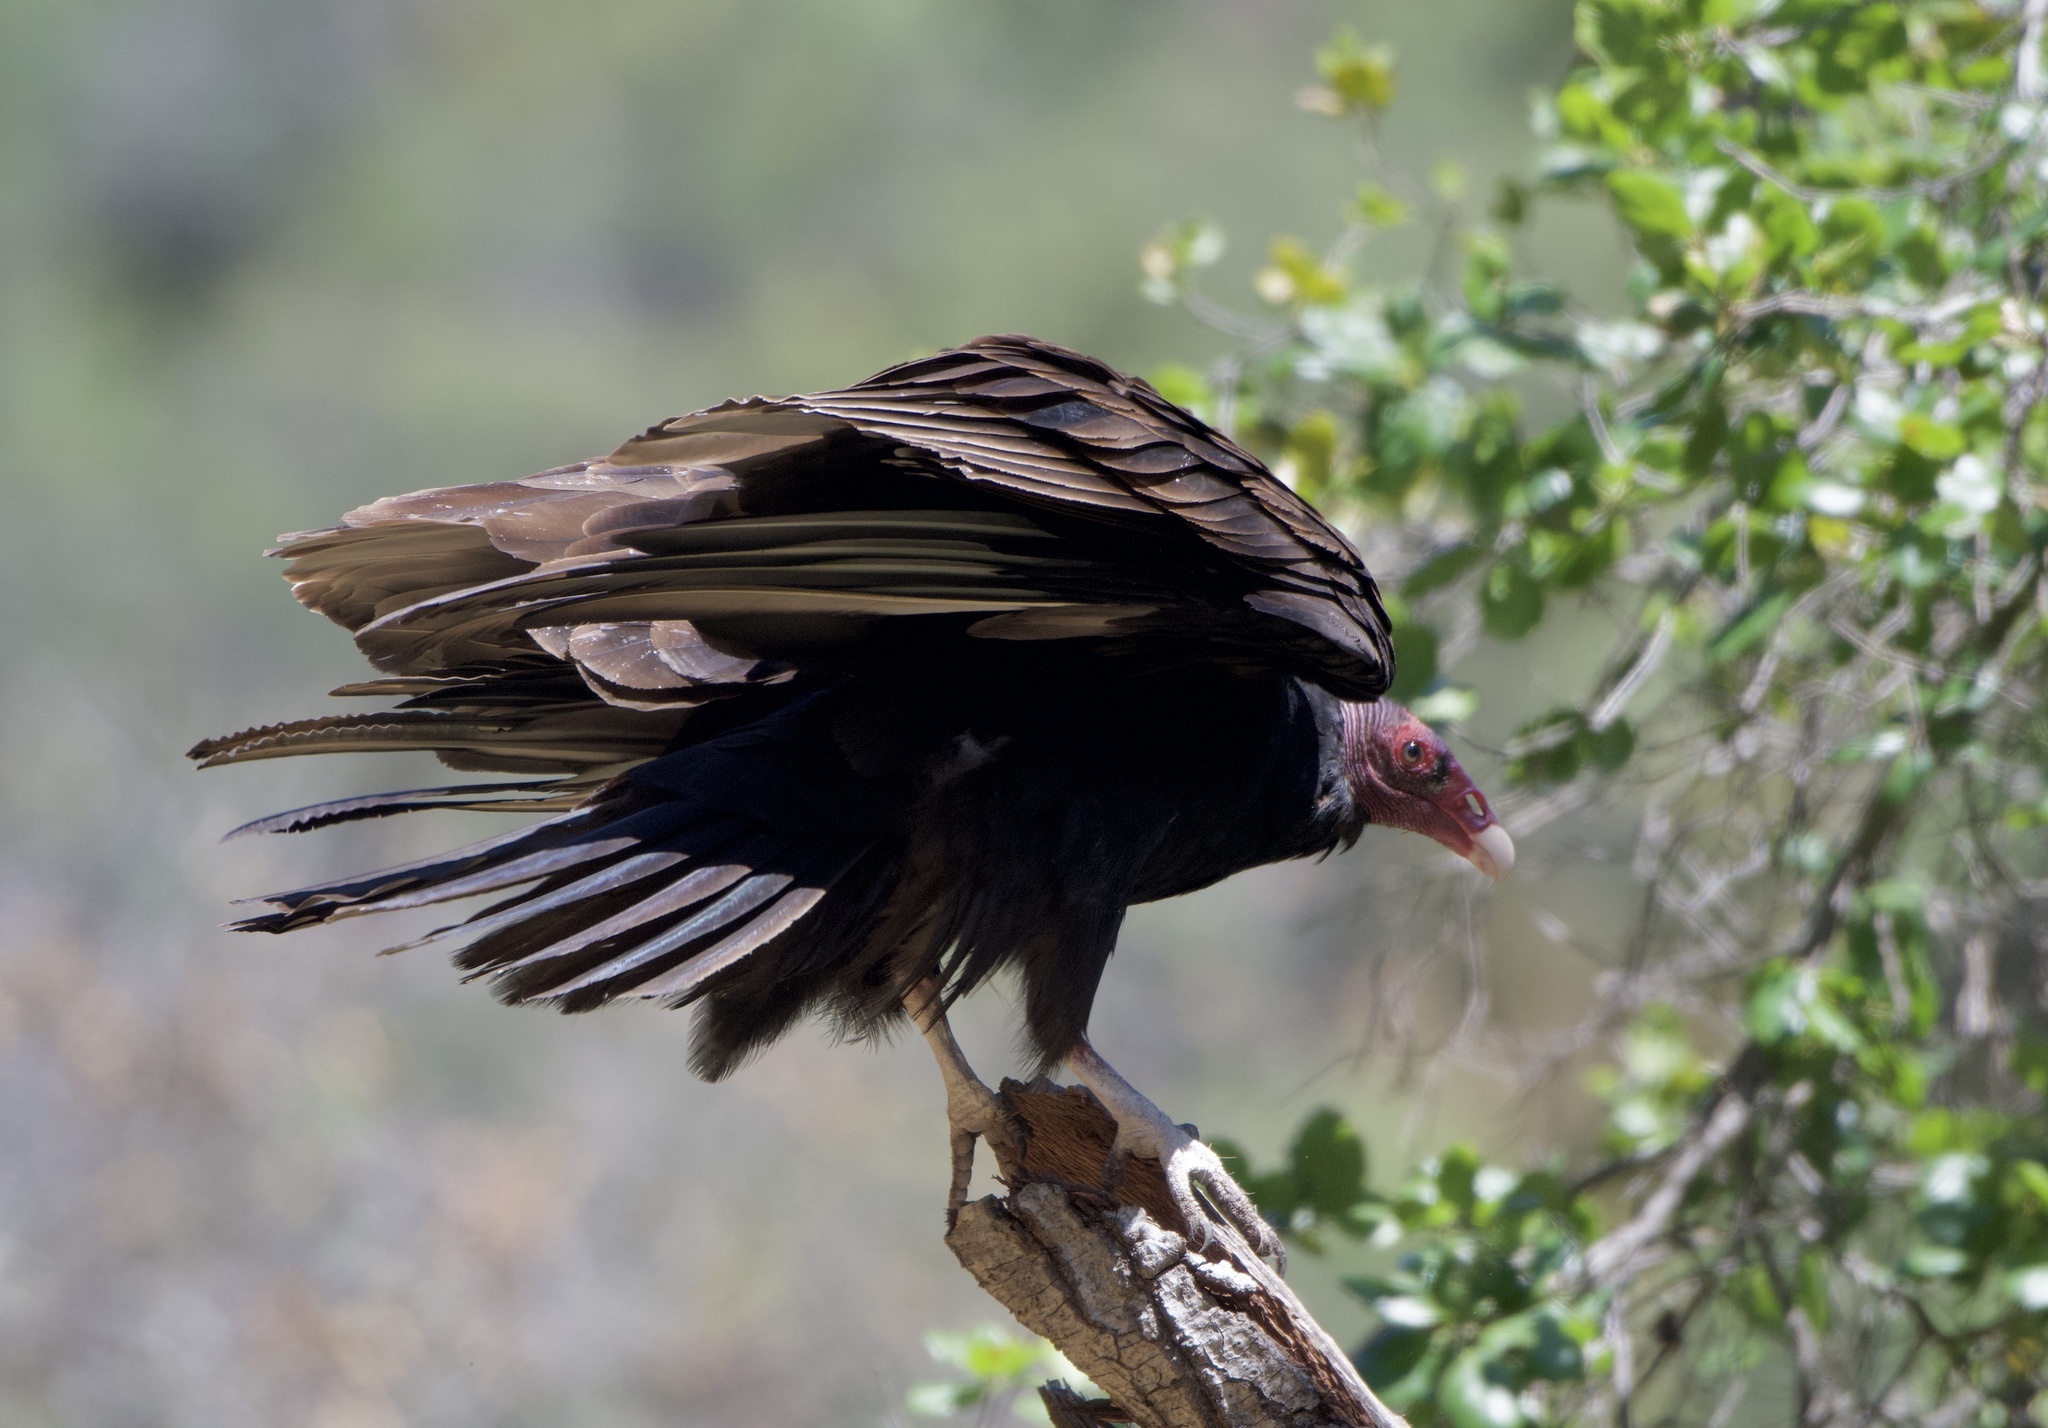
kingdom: Animalia
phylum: Chordata
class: Aves
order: Accipitriformes
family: Cathartidae
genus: Cathartes
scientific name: Cathartes aura
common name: Turkey vulture
